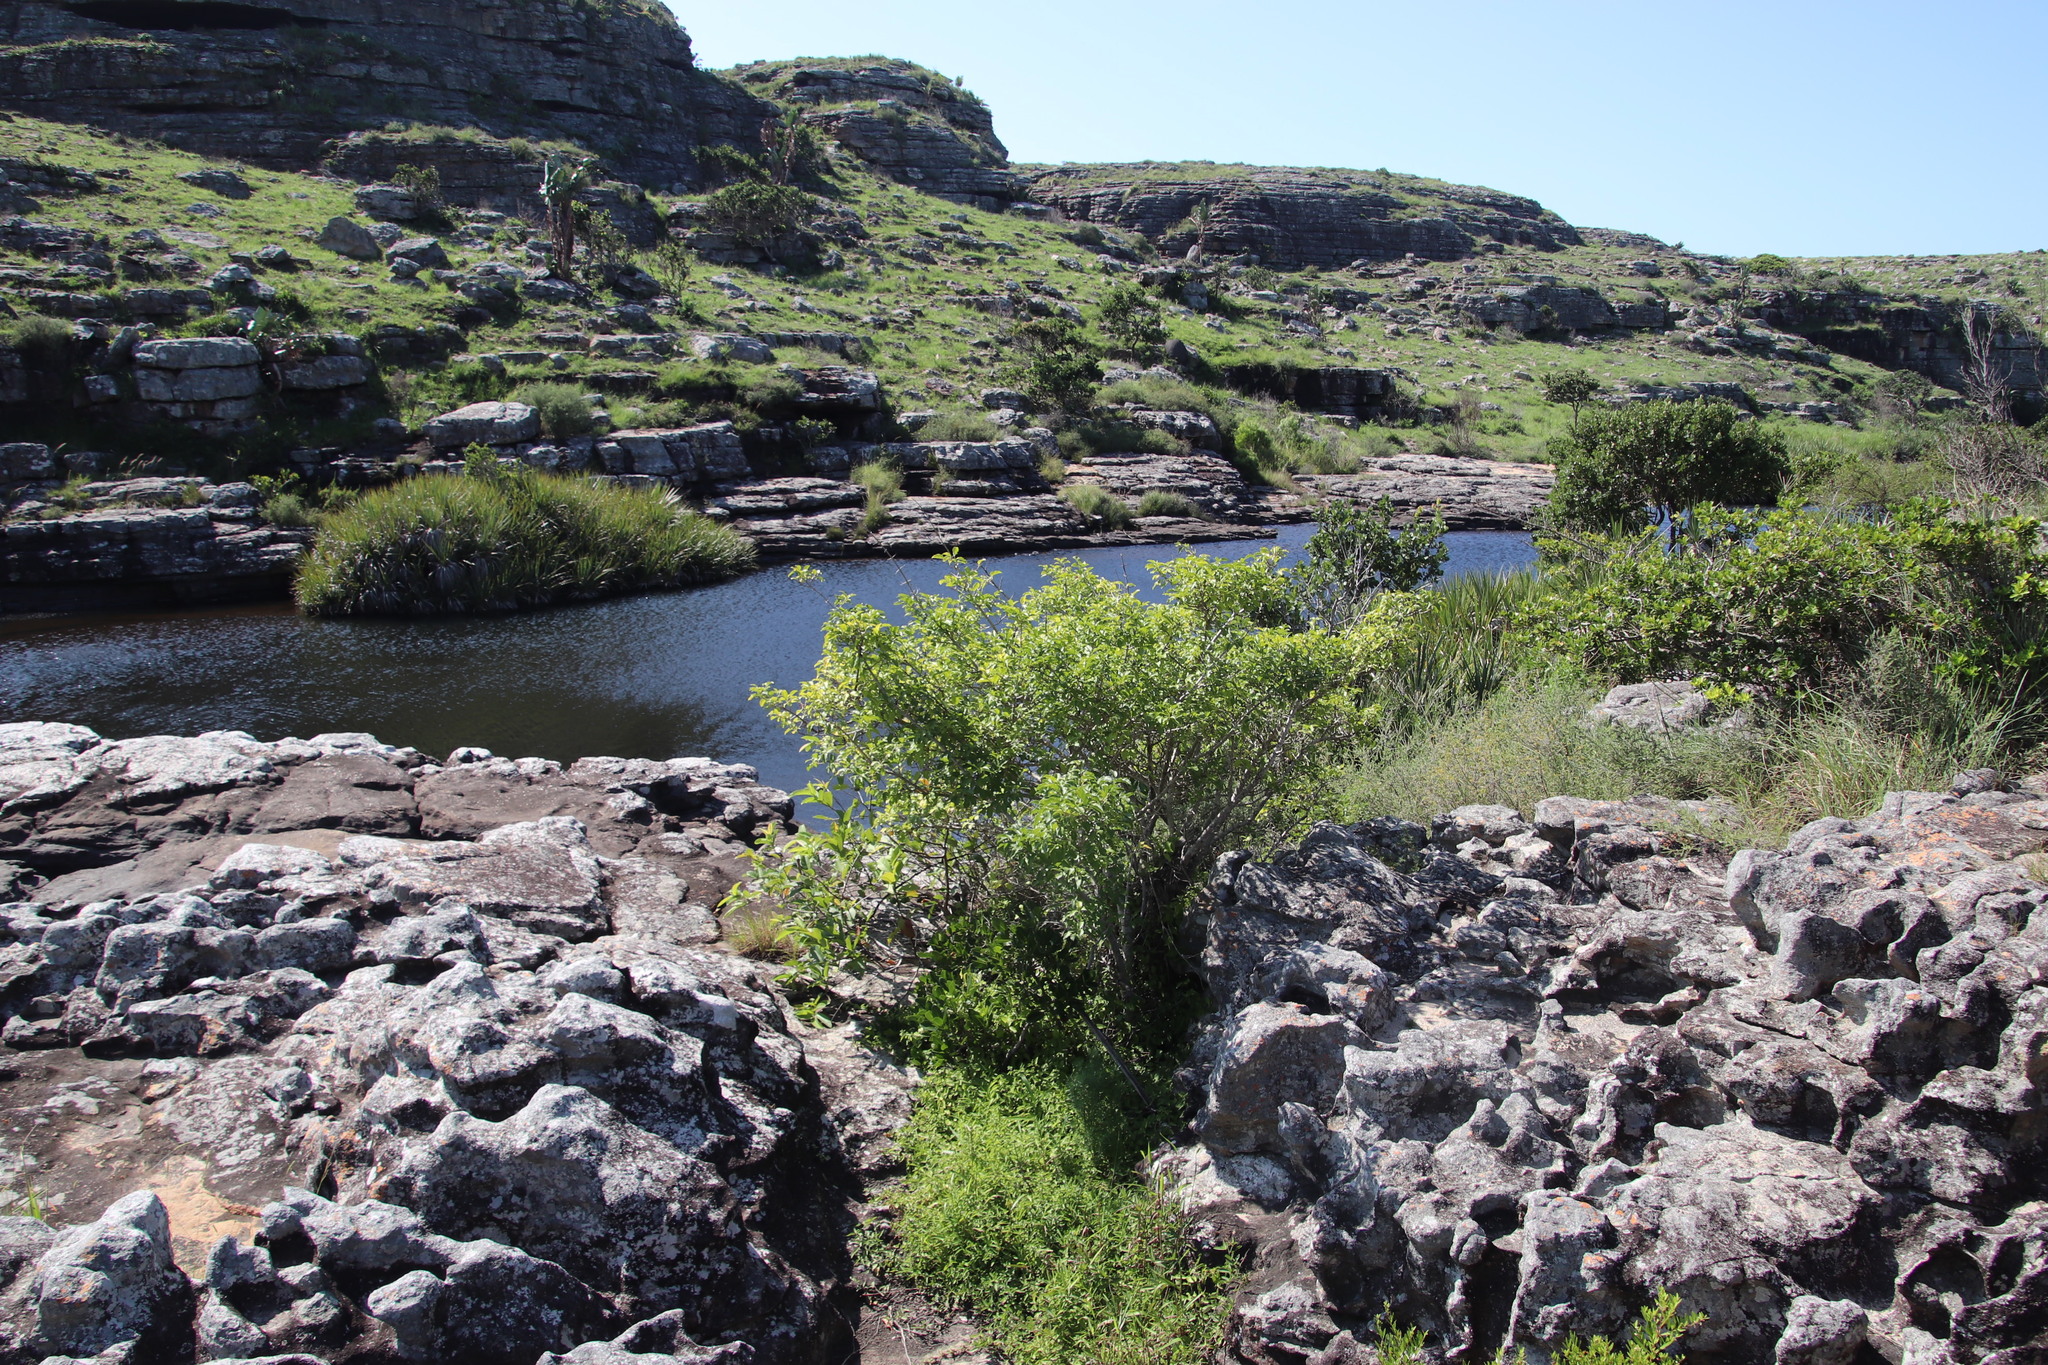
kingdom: Plantae
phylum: Tracheophyta
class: Magnoliopsida
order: Gentianales
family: Rubiaceae
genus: Canthium
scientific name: Canthium inerme
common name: Unarmed turkey-berry
